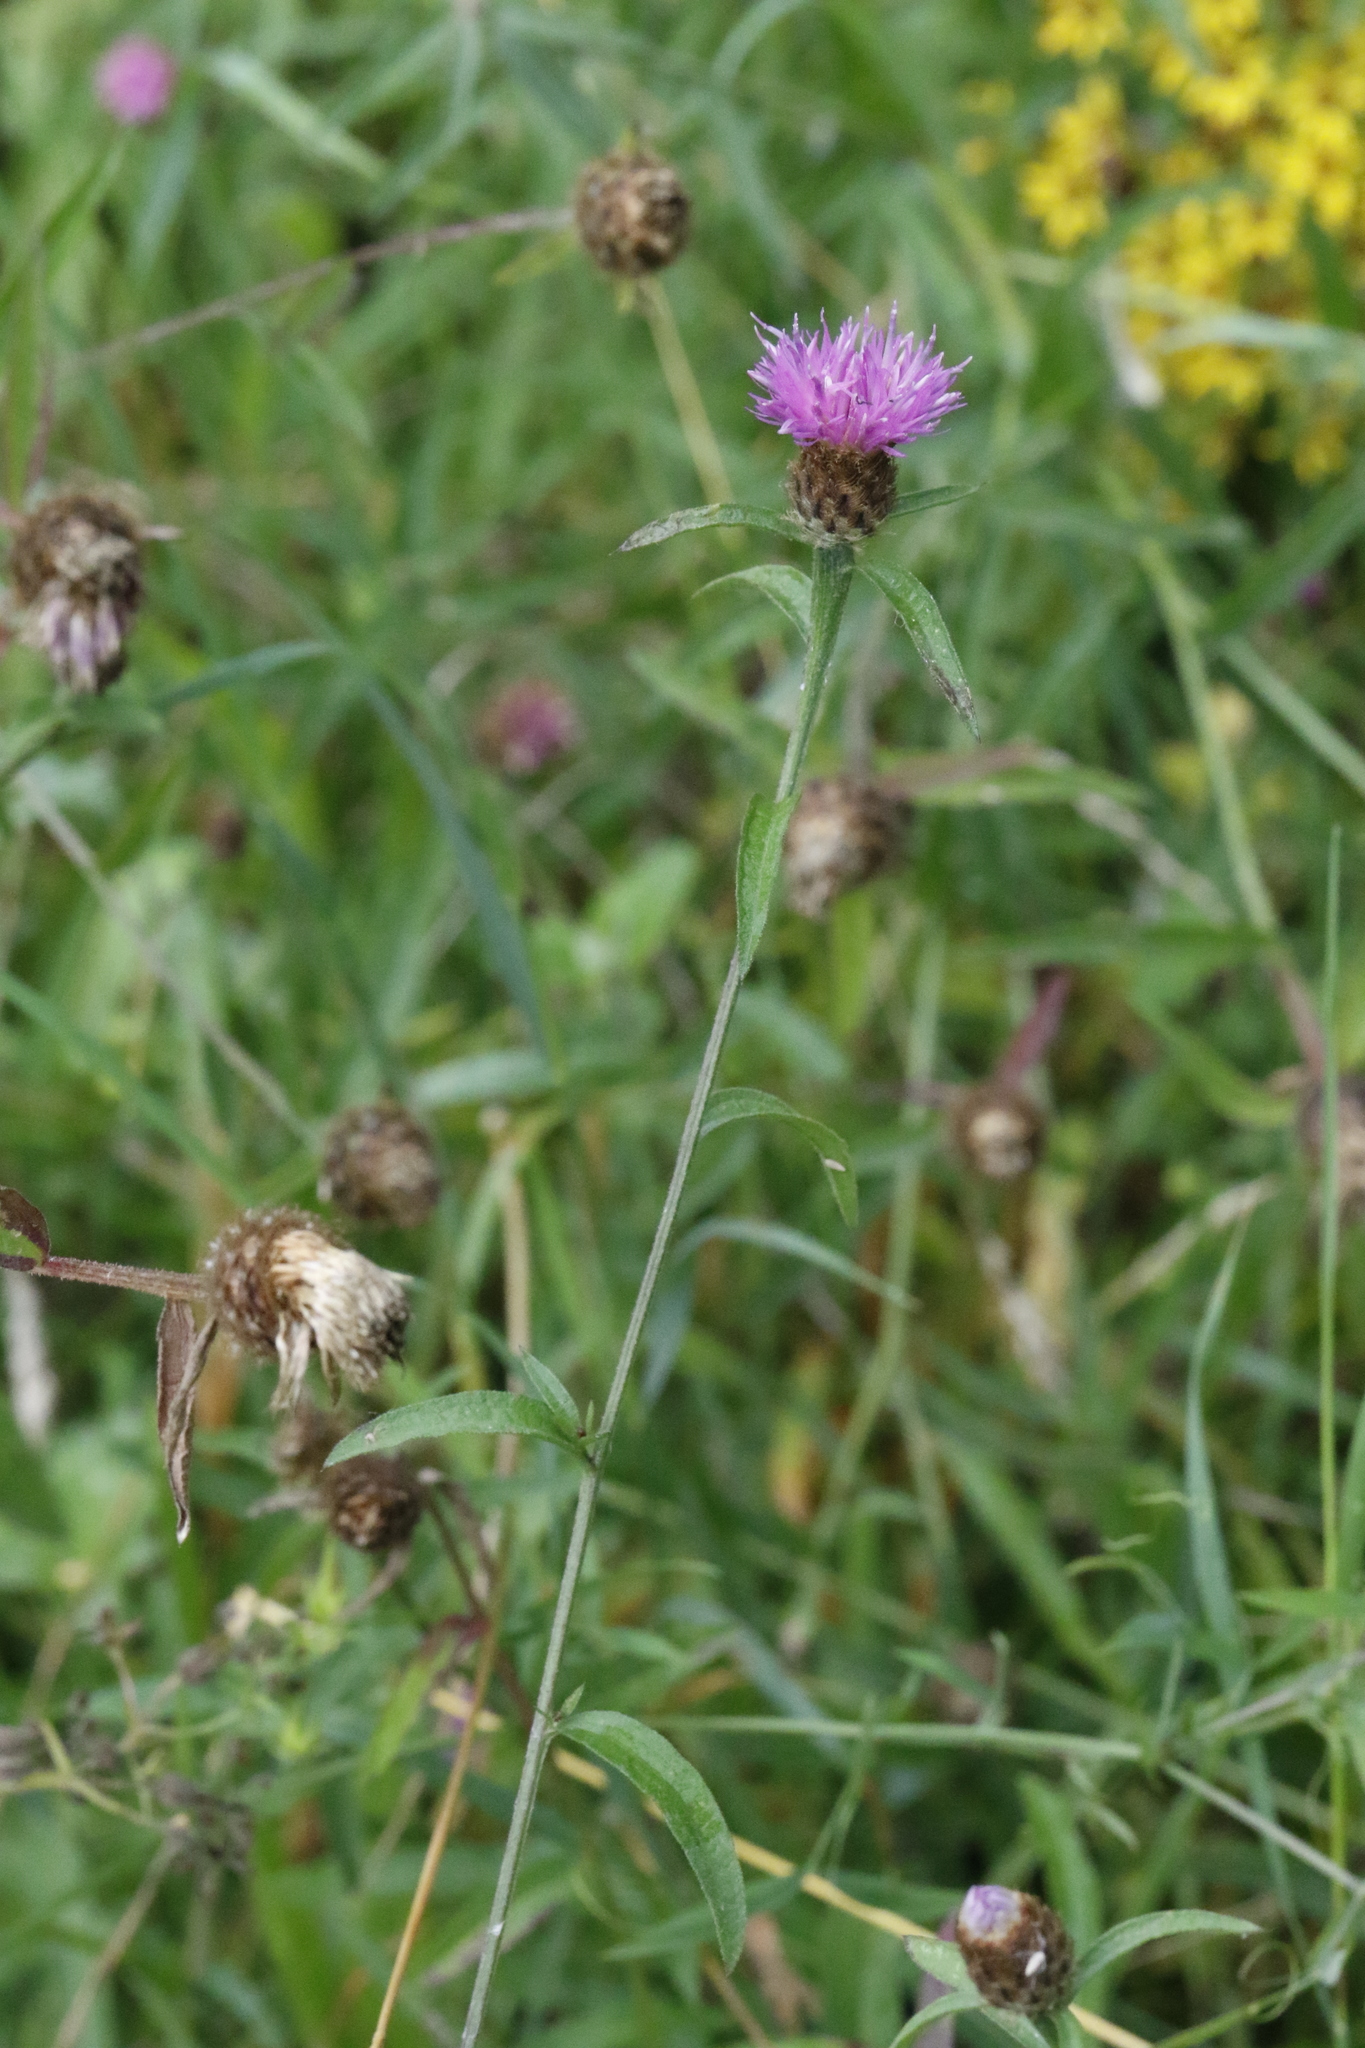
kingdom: Plantae
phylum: Tracheophyta
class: Magnoliopsida
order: Asterales
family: Asteraceae
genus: Centaurea
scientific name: Centaurea nigra
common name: Lesser knapweed
